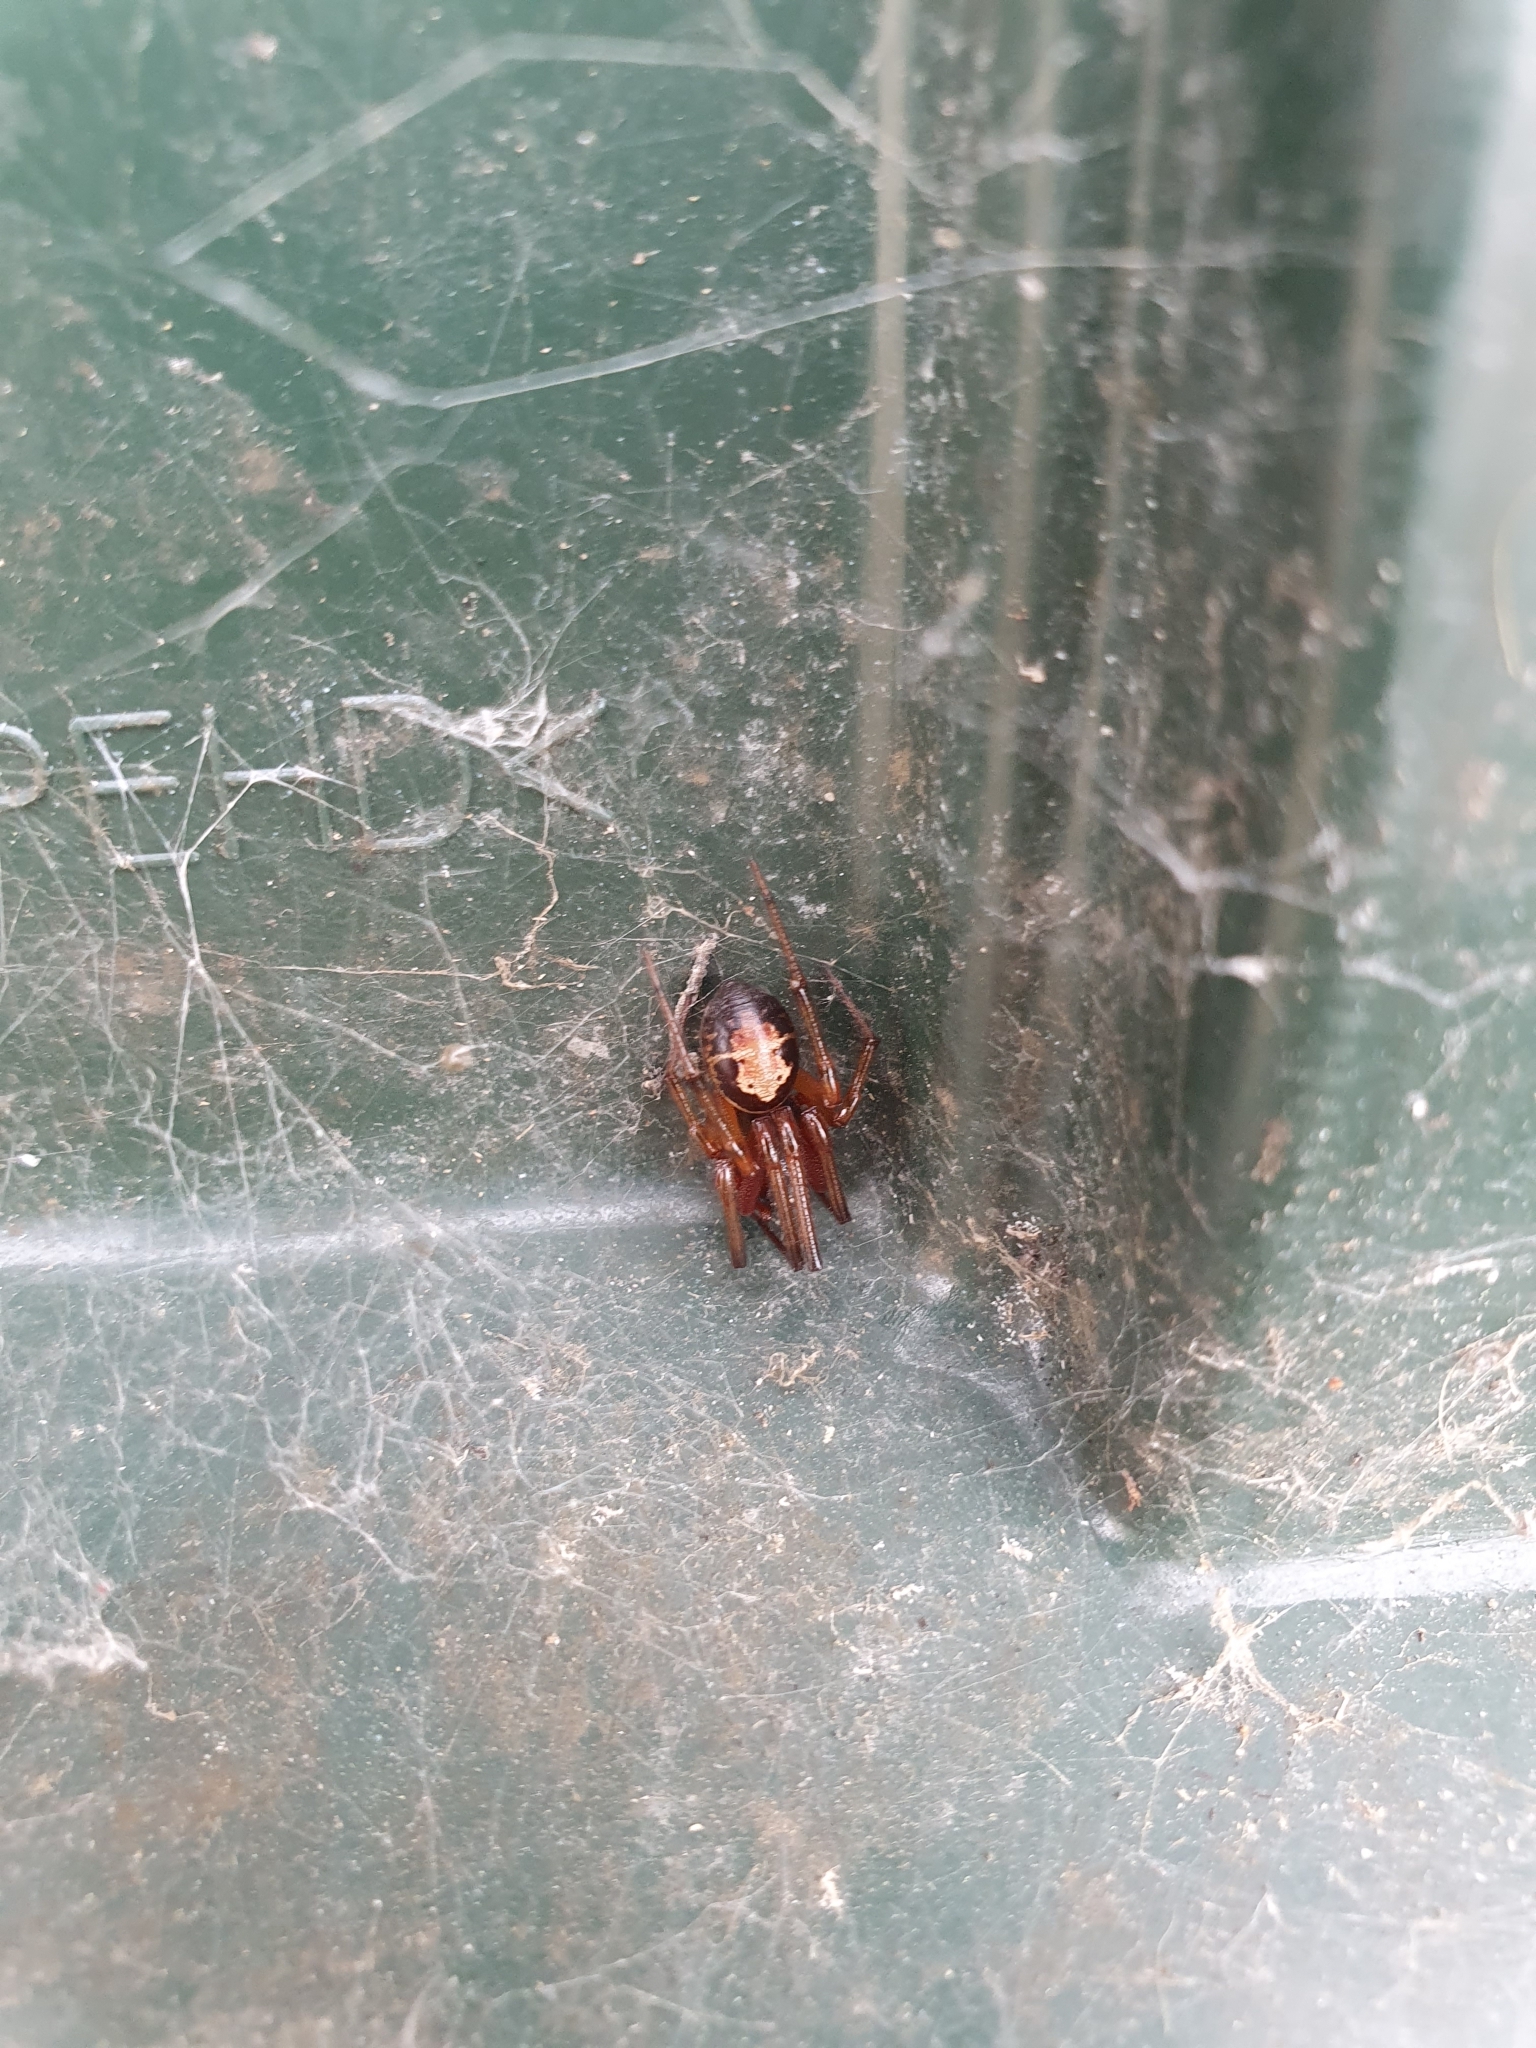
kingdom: Animalia
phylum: Arthropoda
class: Arachnida
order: Araneae
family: Theridiidae
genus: Steatoda
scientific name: Steatoda nobilis
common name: Cobweb weaver
